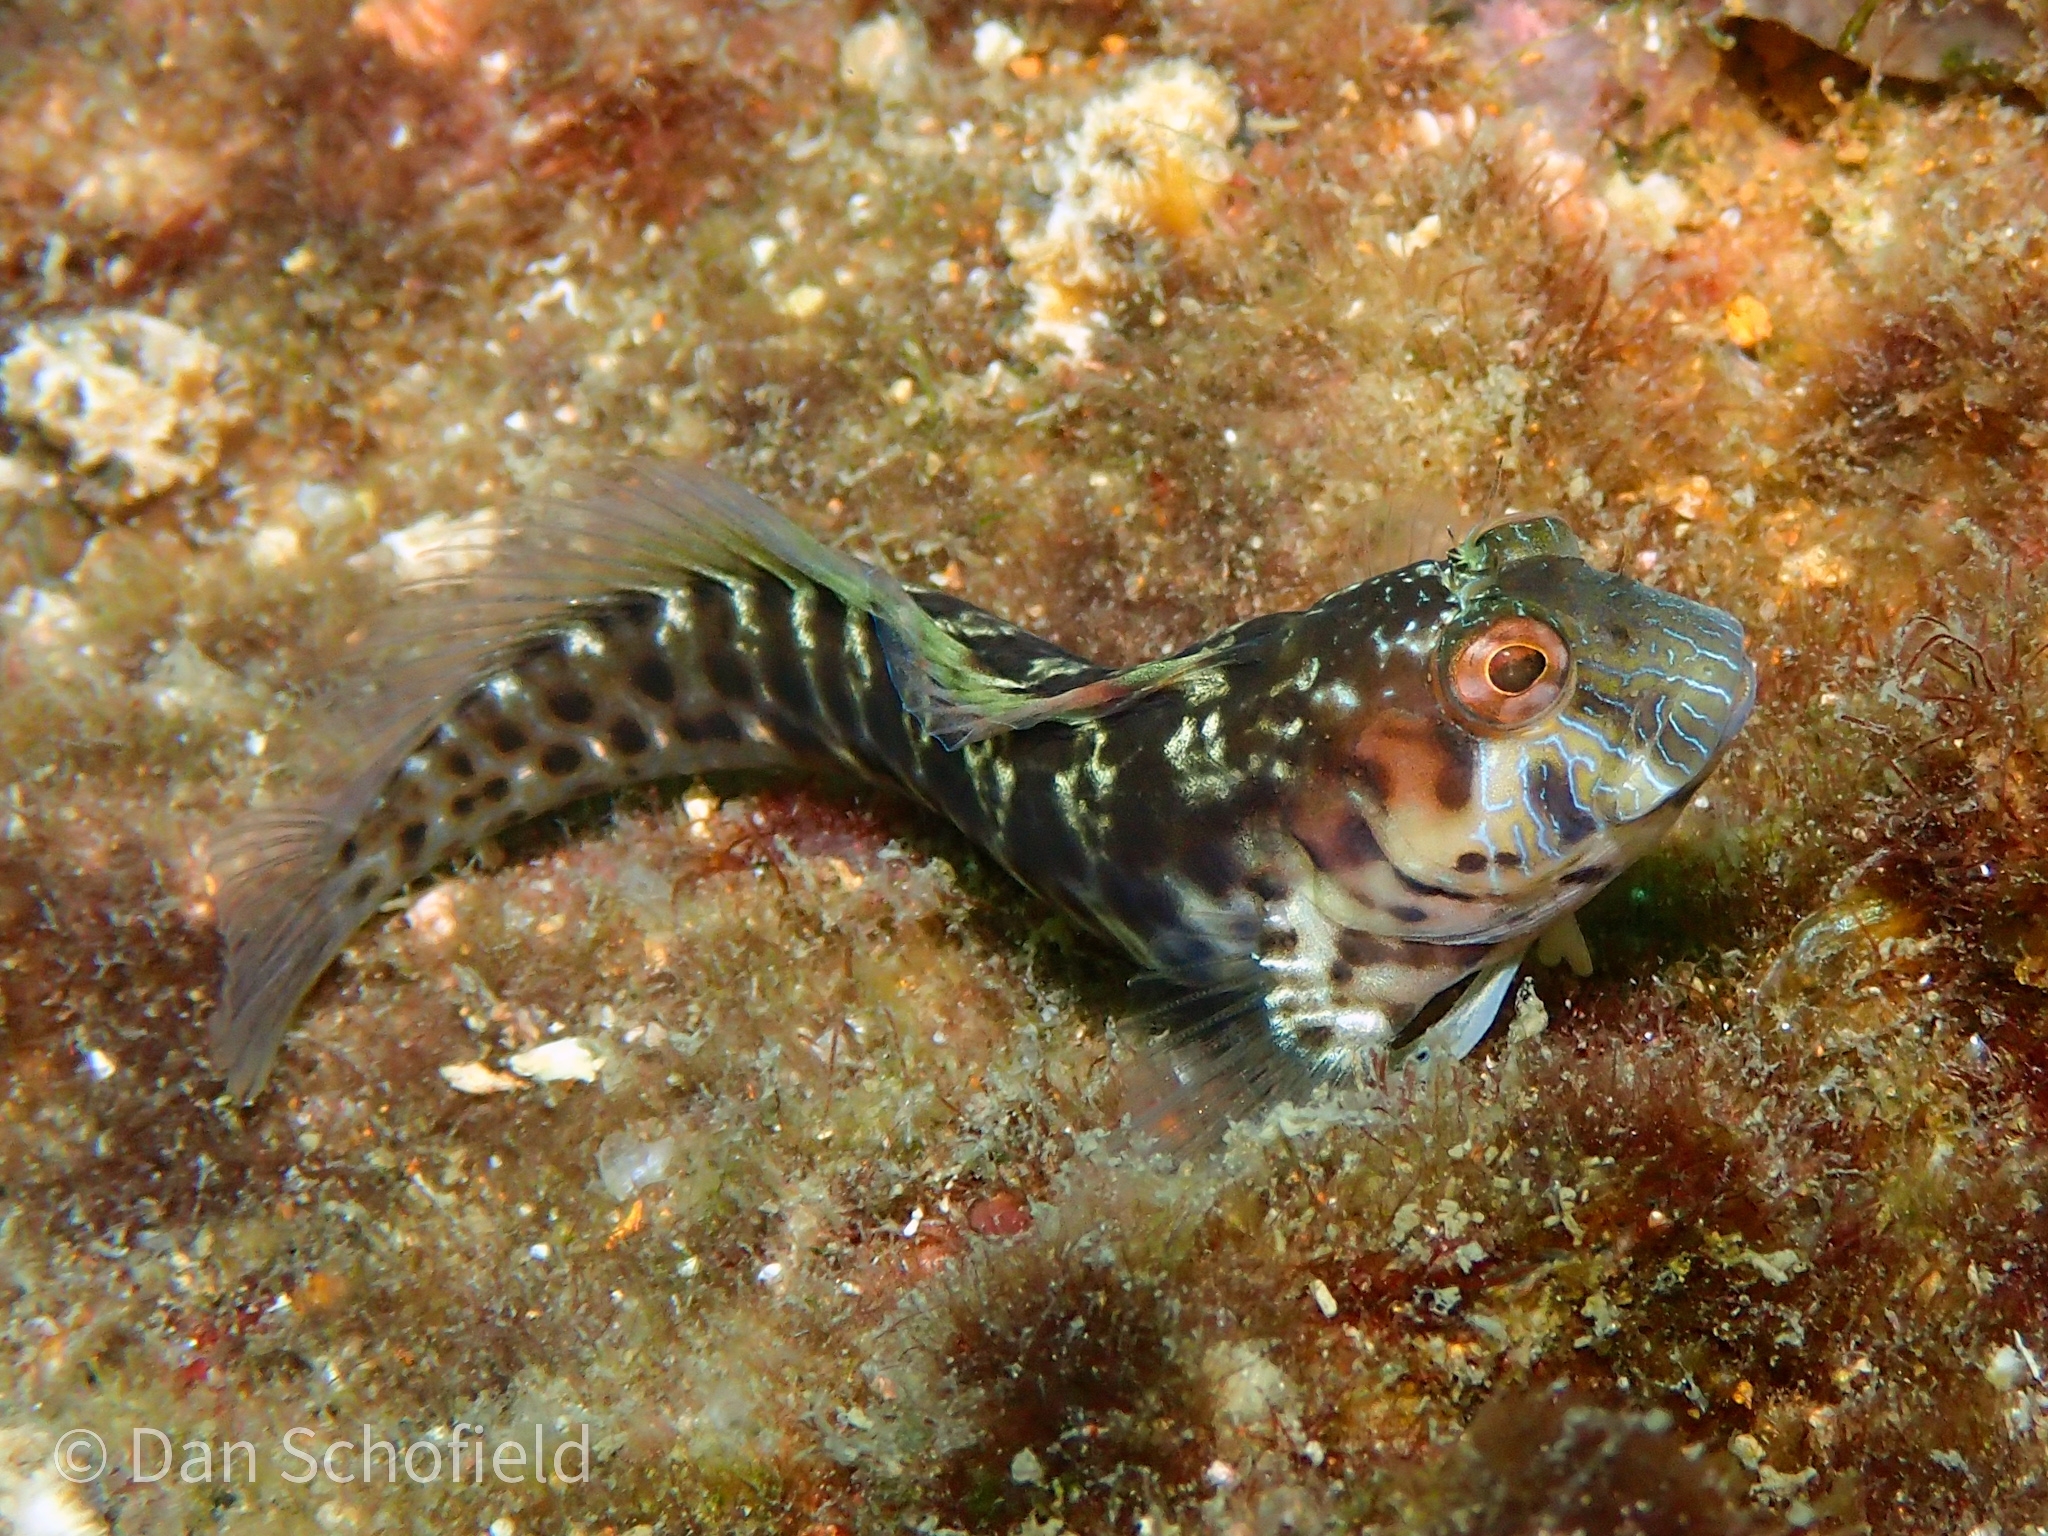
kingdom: Animalia
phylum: Chordata
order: Perciformes
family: Blenniidae
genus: Parablennius
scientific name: Parablennius marmoreus
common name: Seaweed blenny
